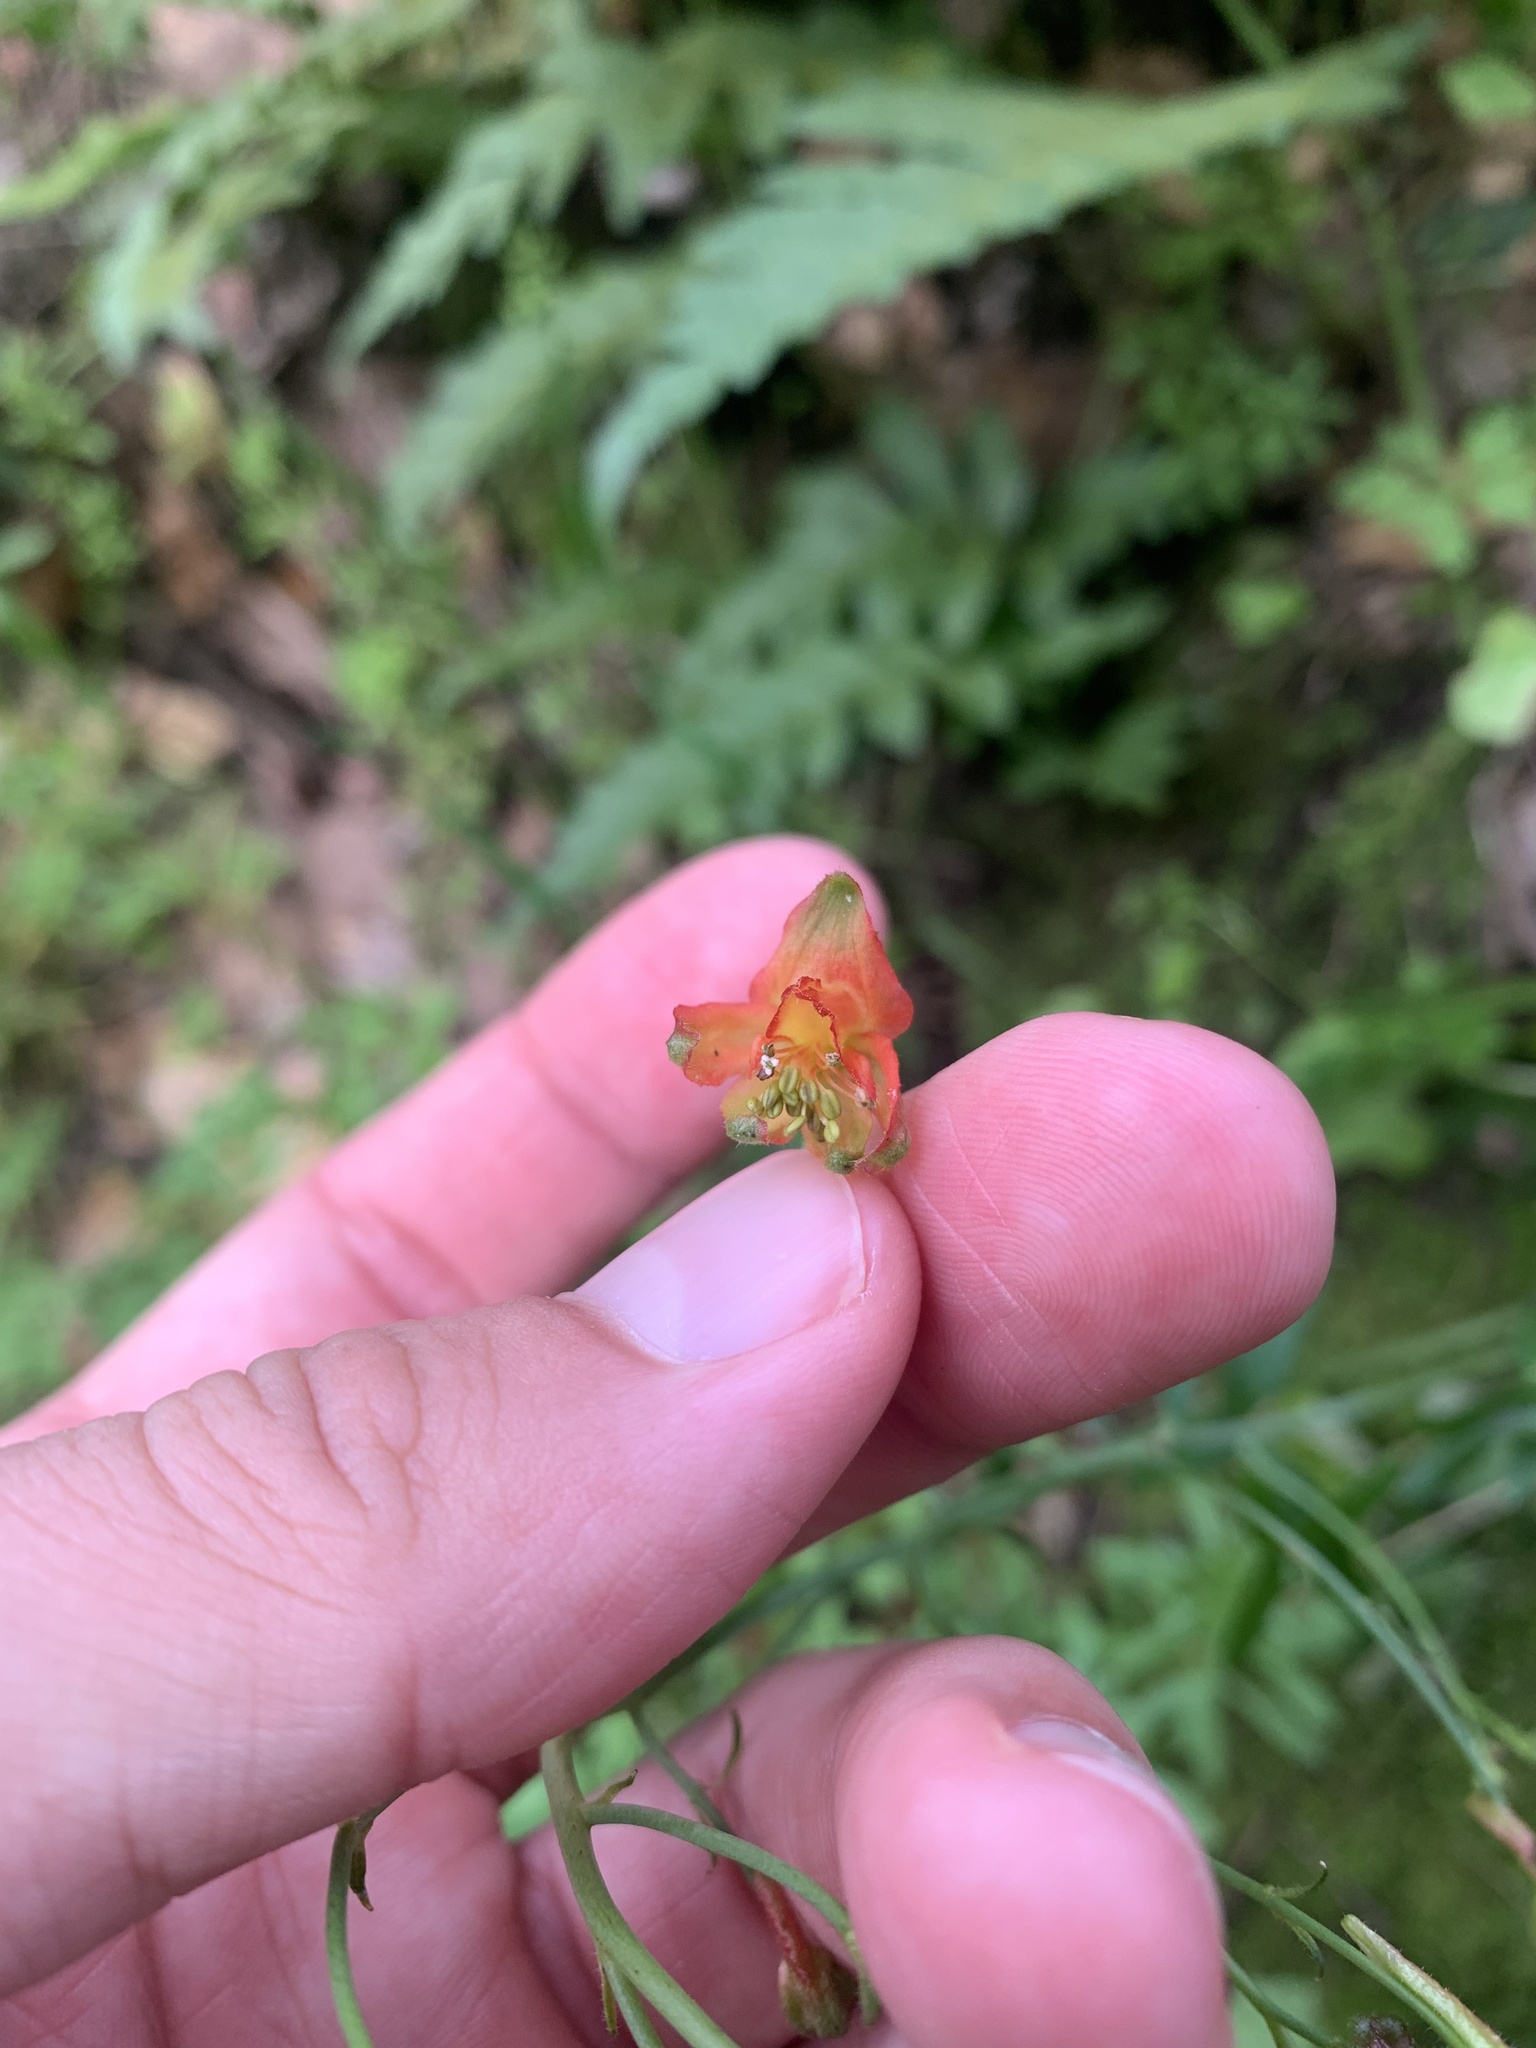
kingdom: Plantae
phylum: Tracheophyta
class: Magnoliopsida
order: Ranunculales
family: Ranunculaceae
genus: Delphinium
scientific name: Delphinium nudicaule
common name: Red larkspur
